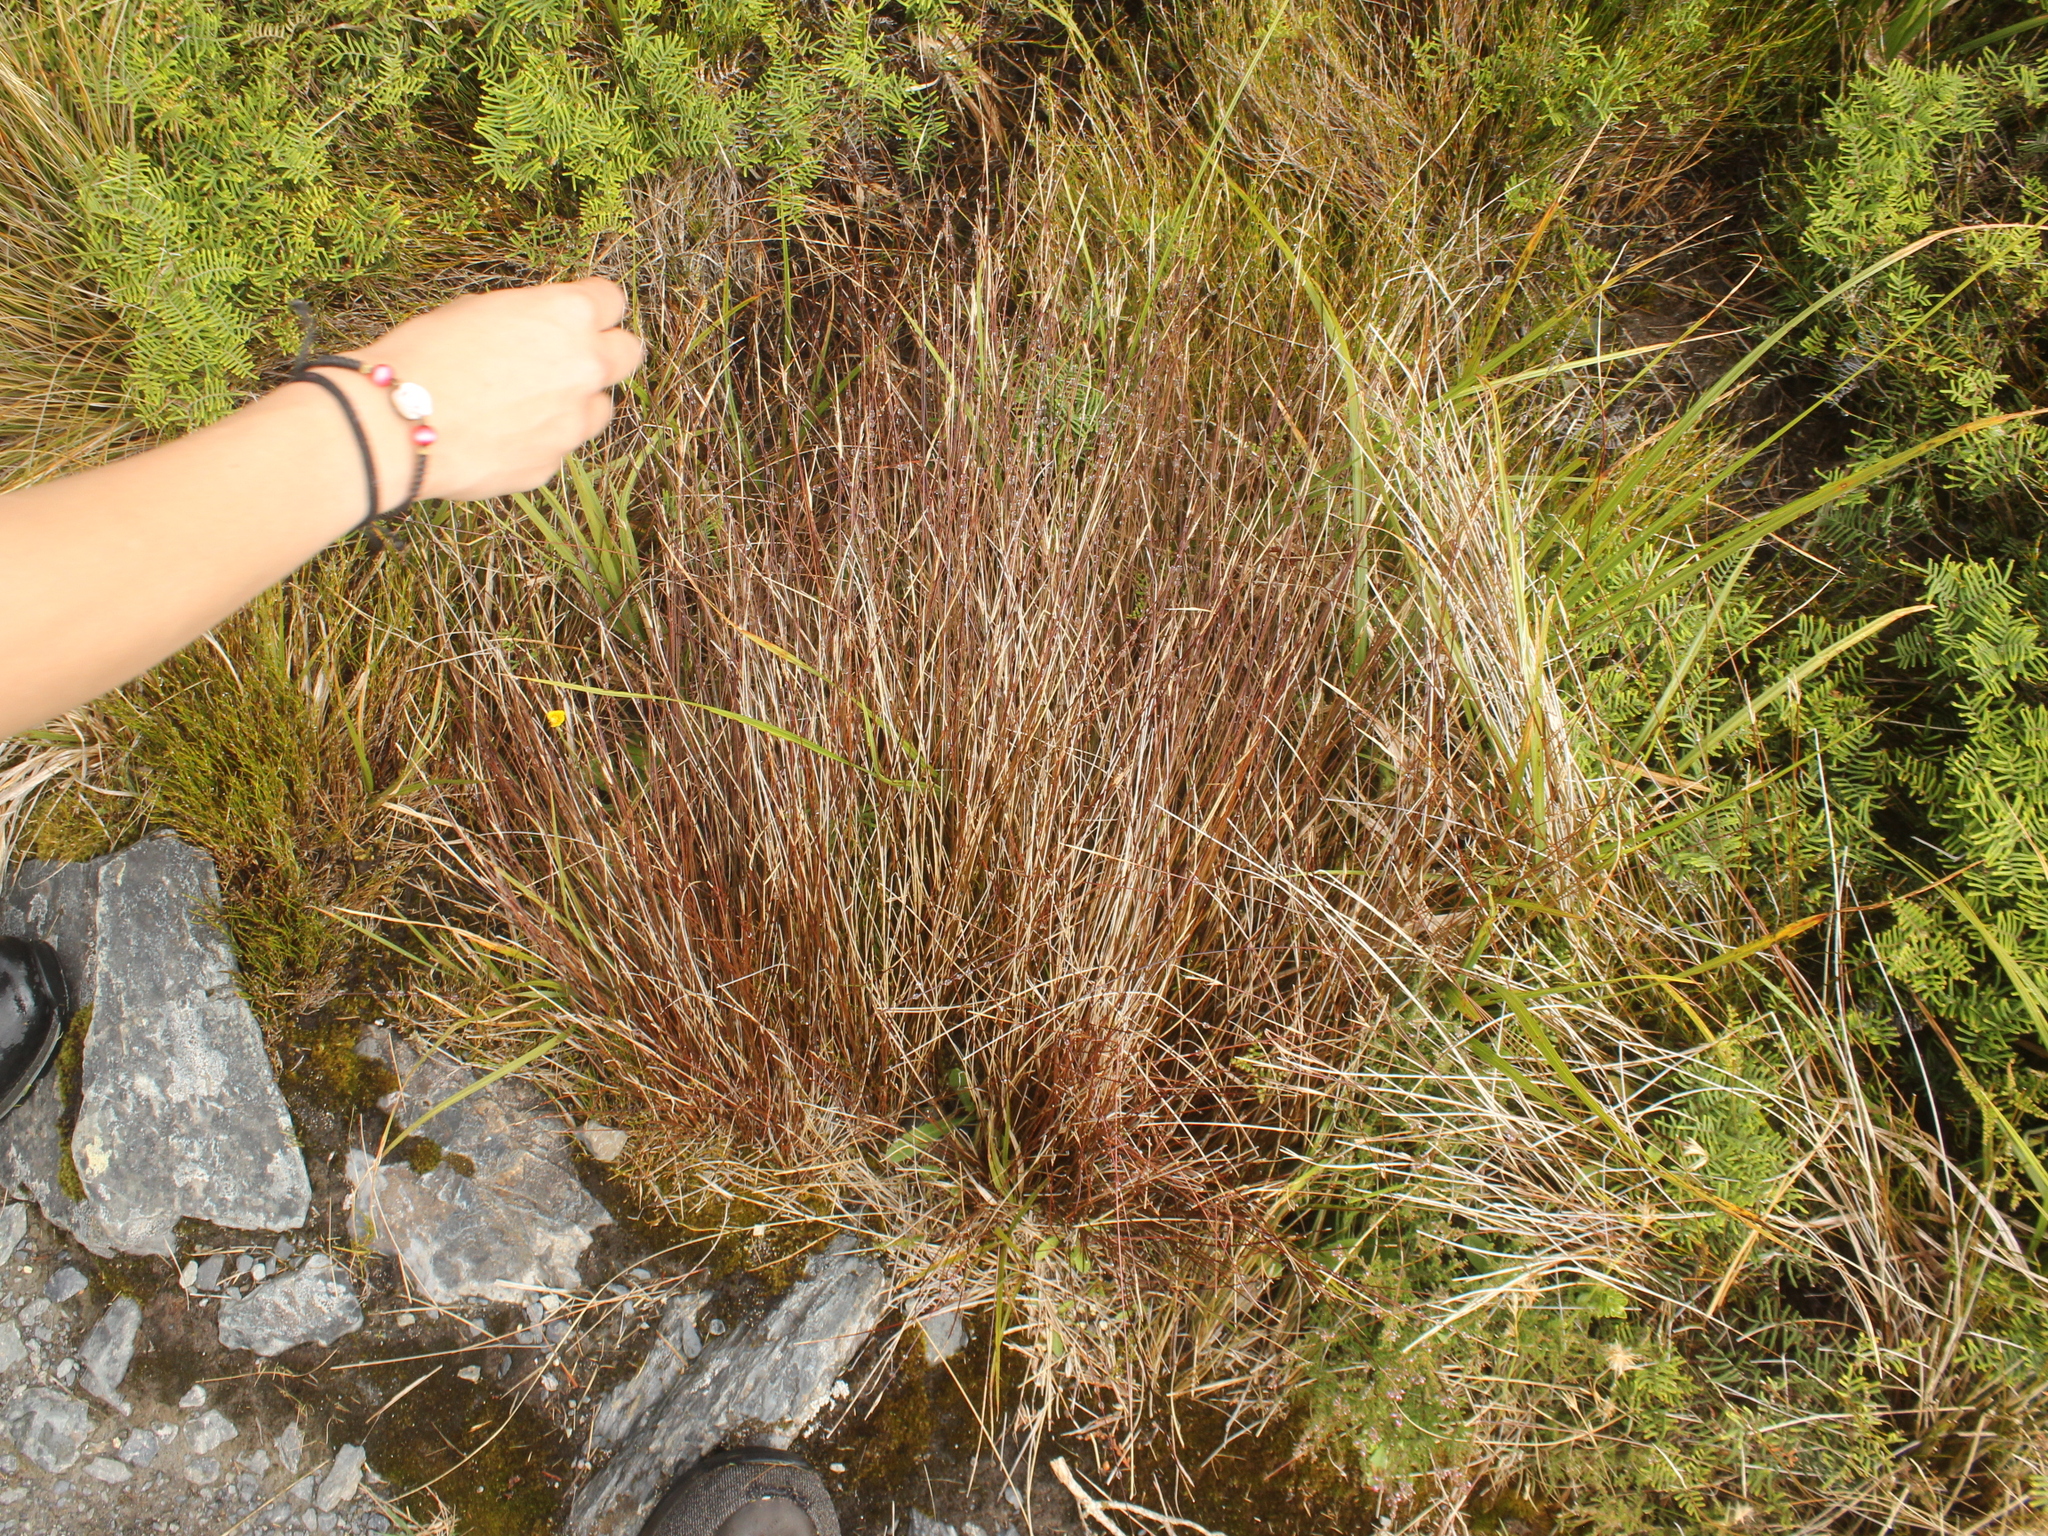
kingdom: Plantae
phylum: Tracheophyta
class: Liliopsida
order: Poales
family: Cyperaceae
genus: Schoenus
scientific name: Schoenus pauciflorus
